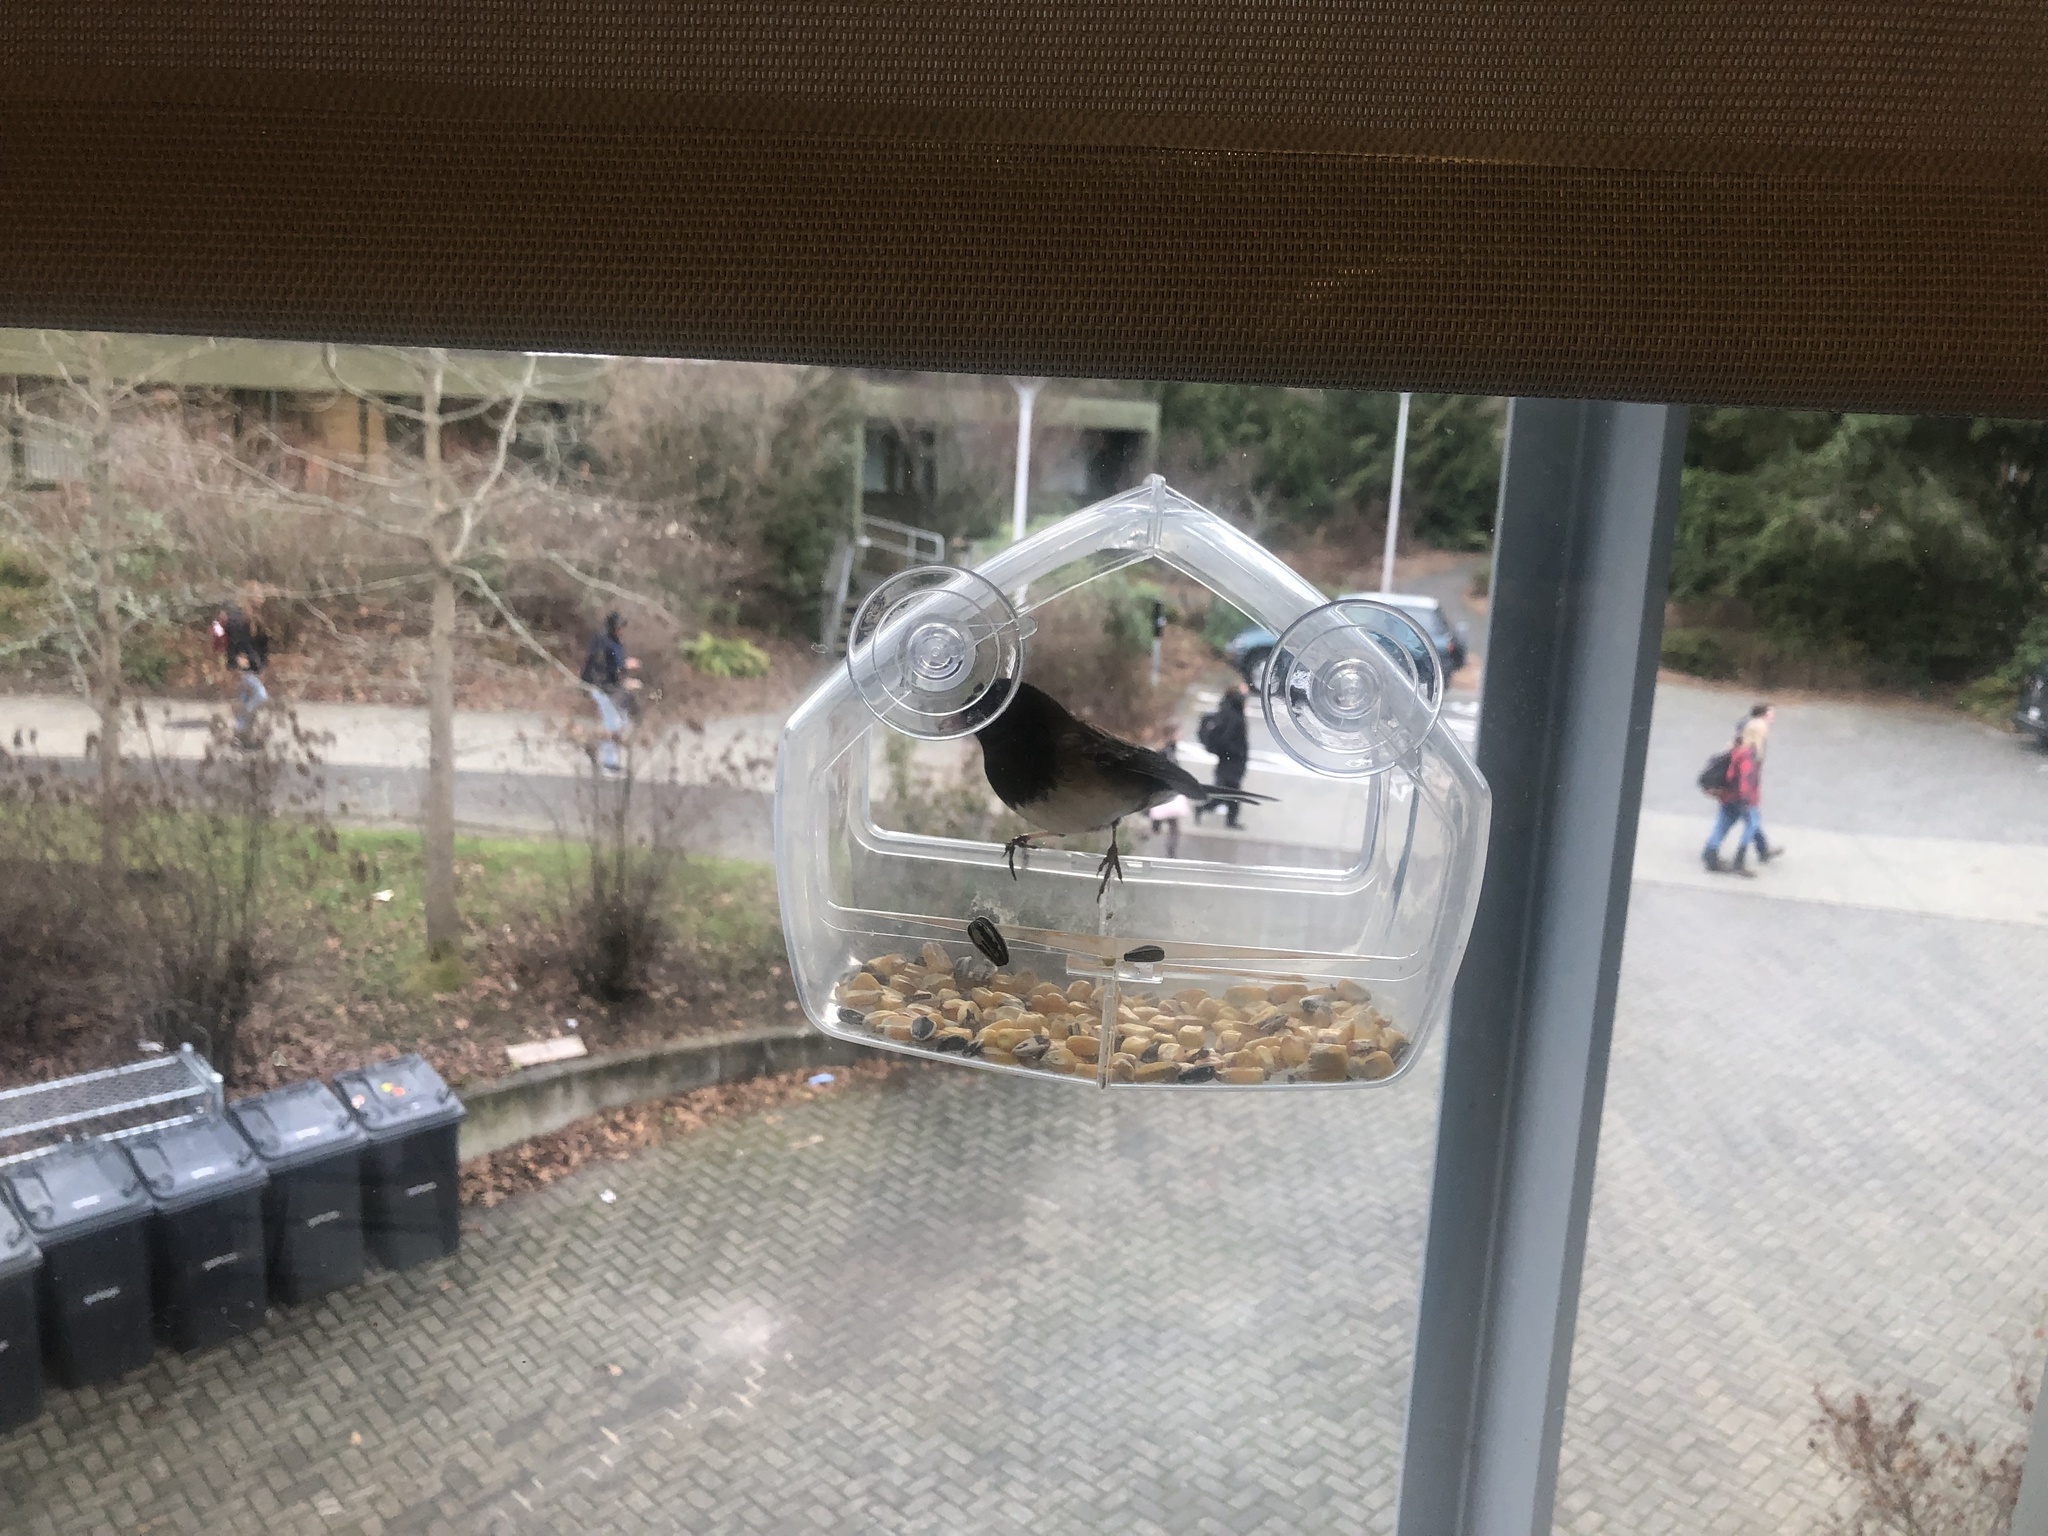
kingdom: Animalia
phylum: Chordata
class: Aves
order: Passeriformes
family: Passerellidae
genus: Junco
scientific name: Junco hyemalis
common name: Dark-eyed junco
